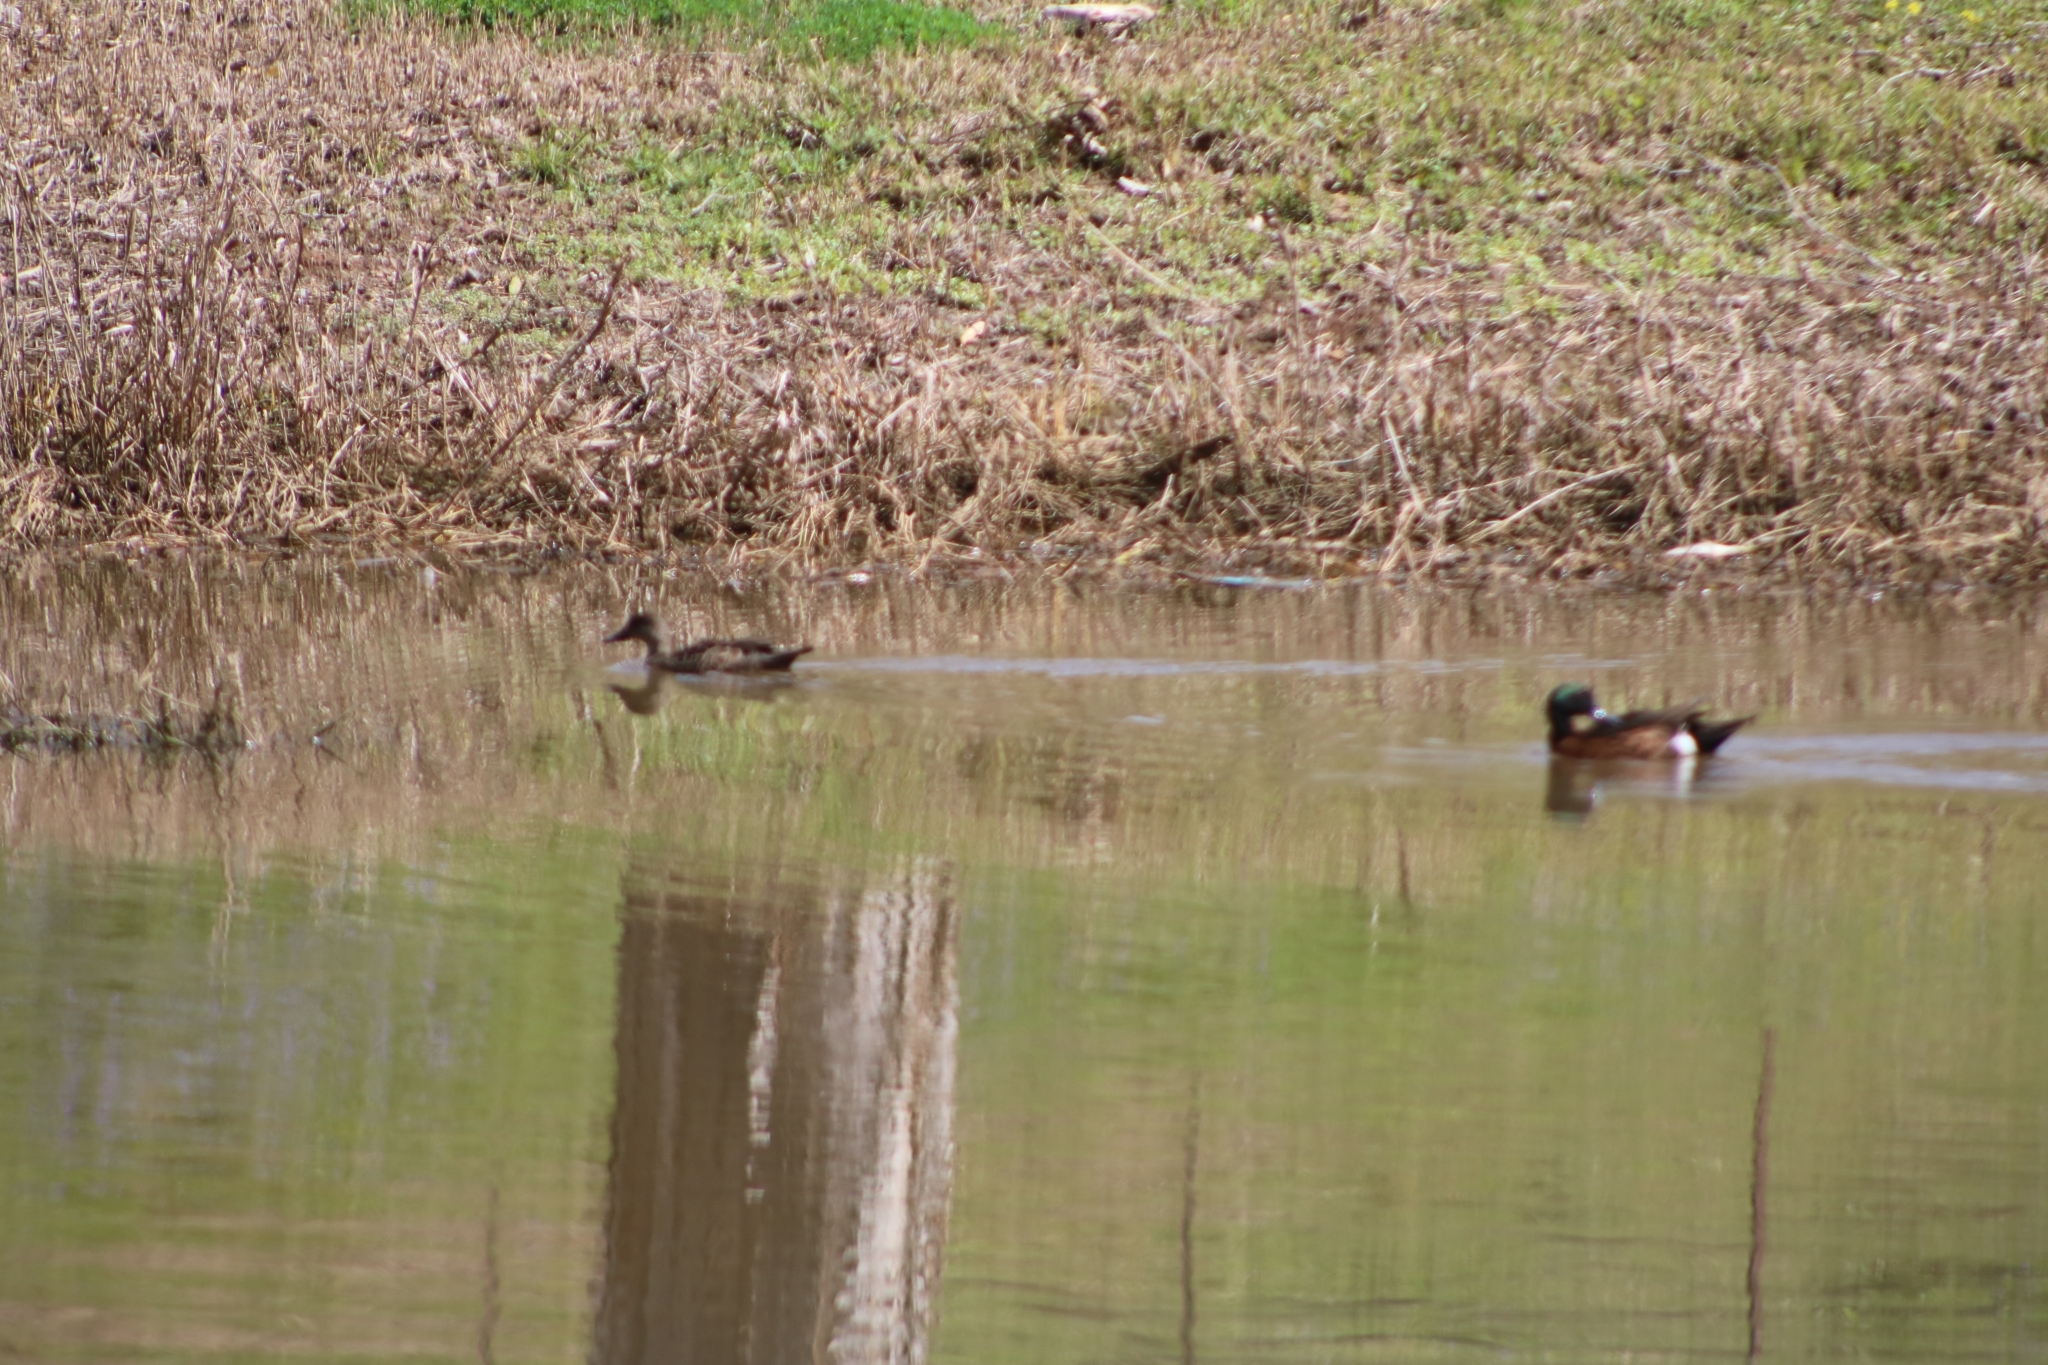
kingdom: Animalia
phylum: Chordata
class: Aves
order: Anseriformes
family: Anatidae
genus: Anas
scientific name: Anas castanea
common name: Chestnut teal
